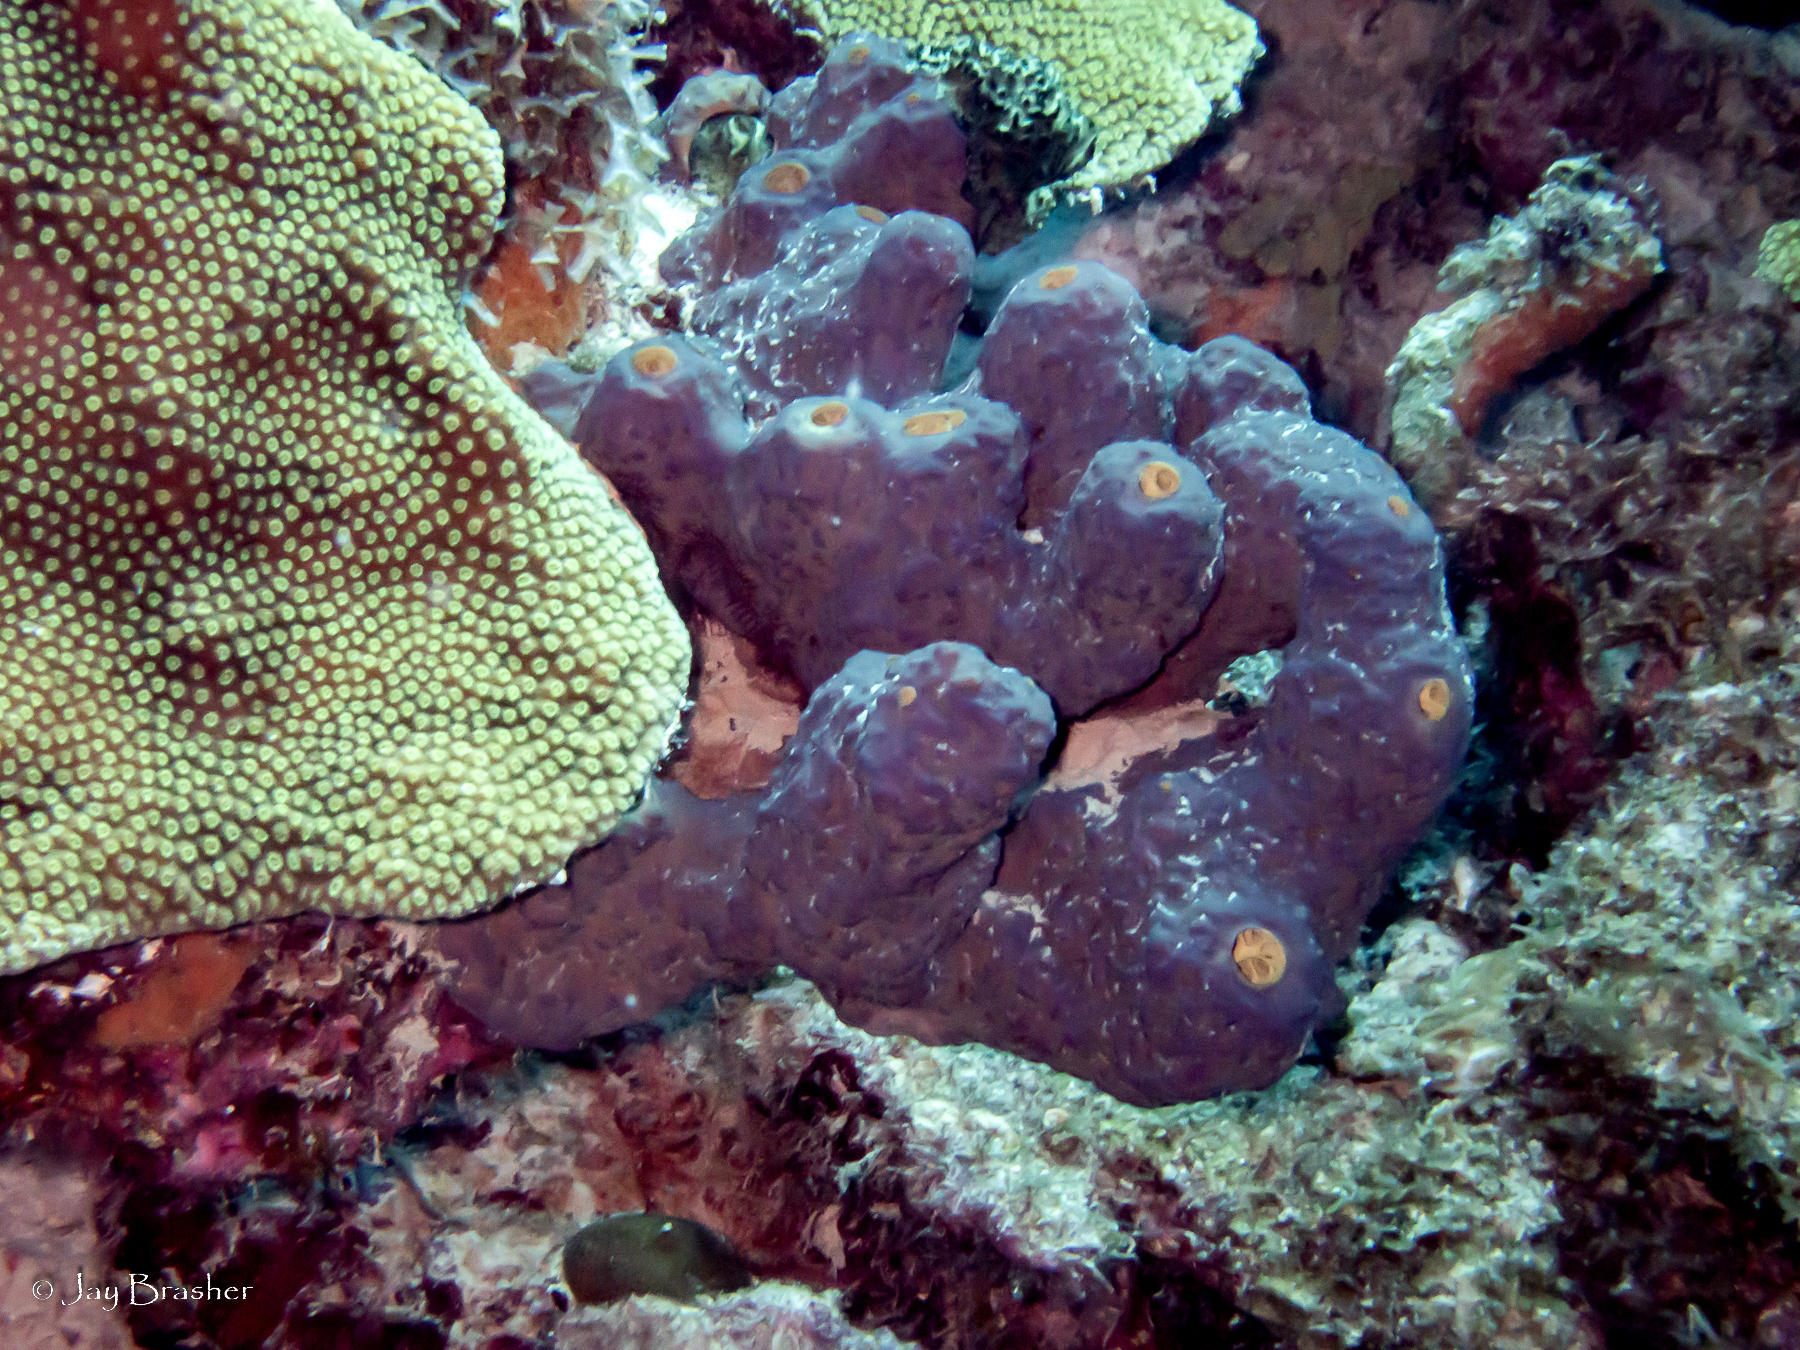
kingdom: Animalia
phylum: Porifera
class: Demospongiae
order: Verongiida
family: Aplysinidae
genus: Aiolochroia
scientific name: Aiolochroia crassa
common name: Branching tube sponge
